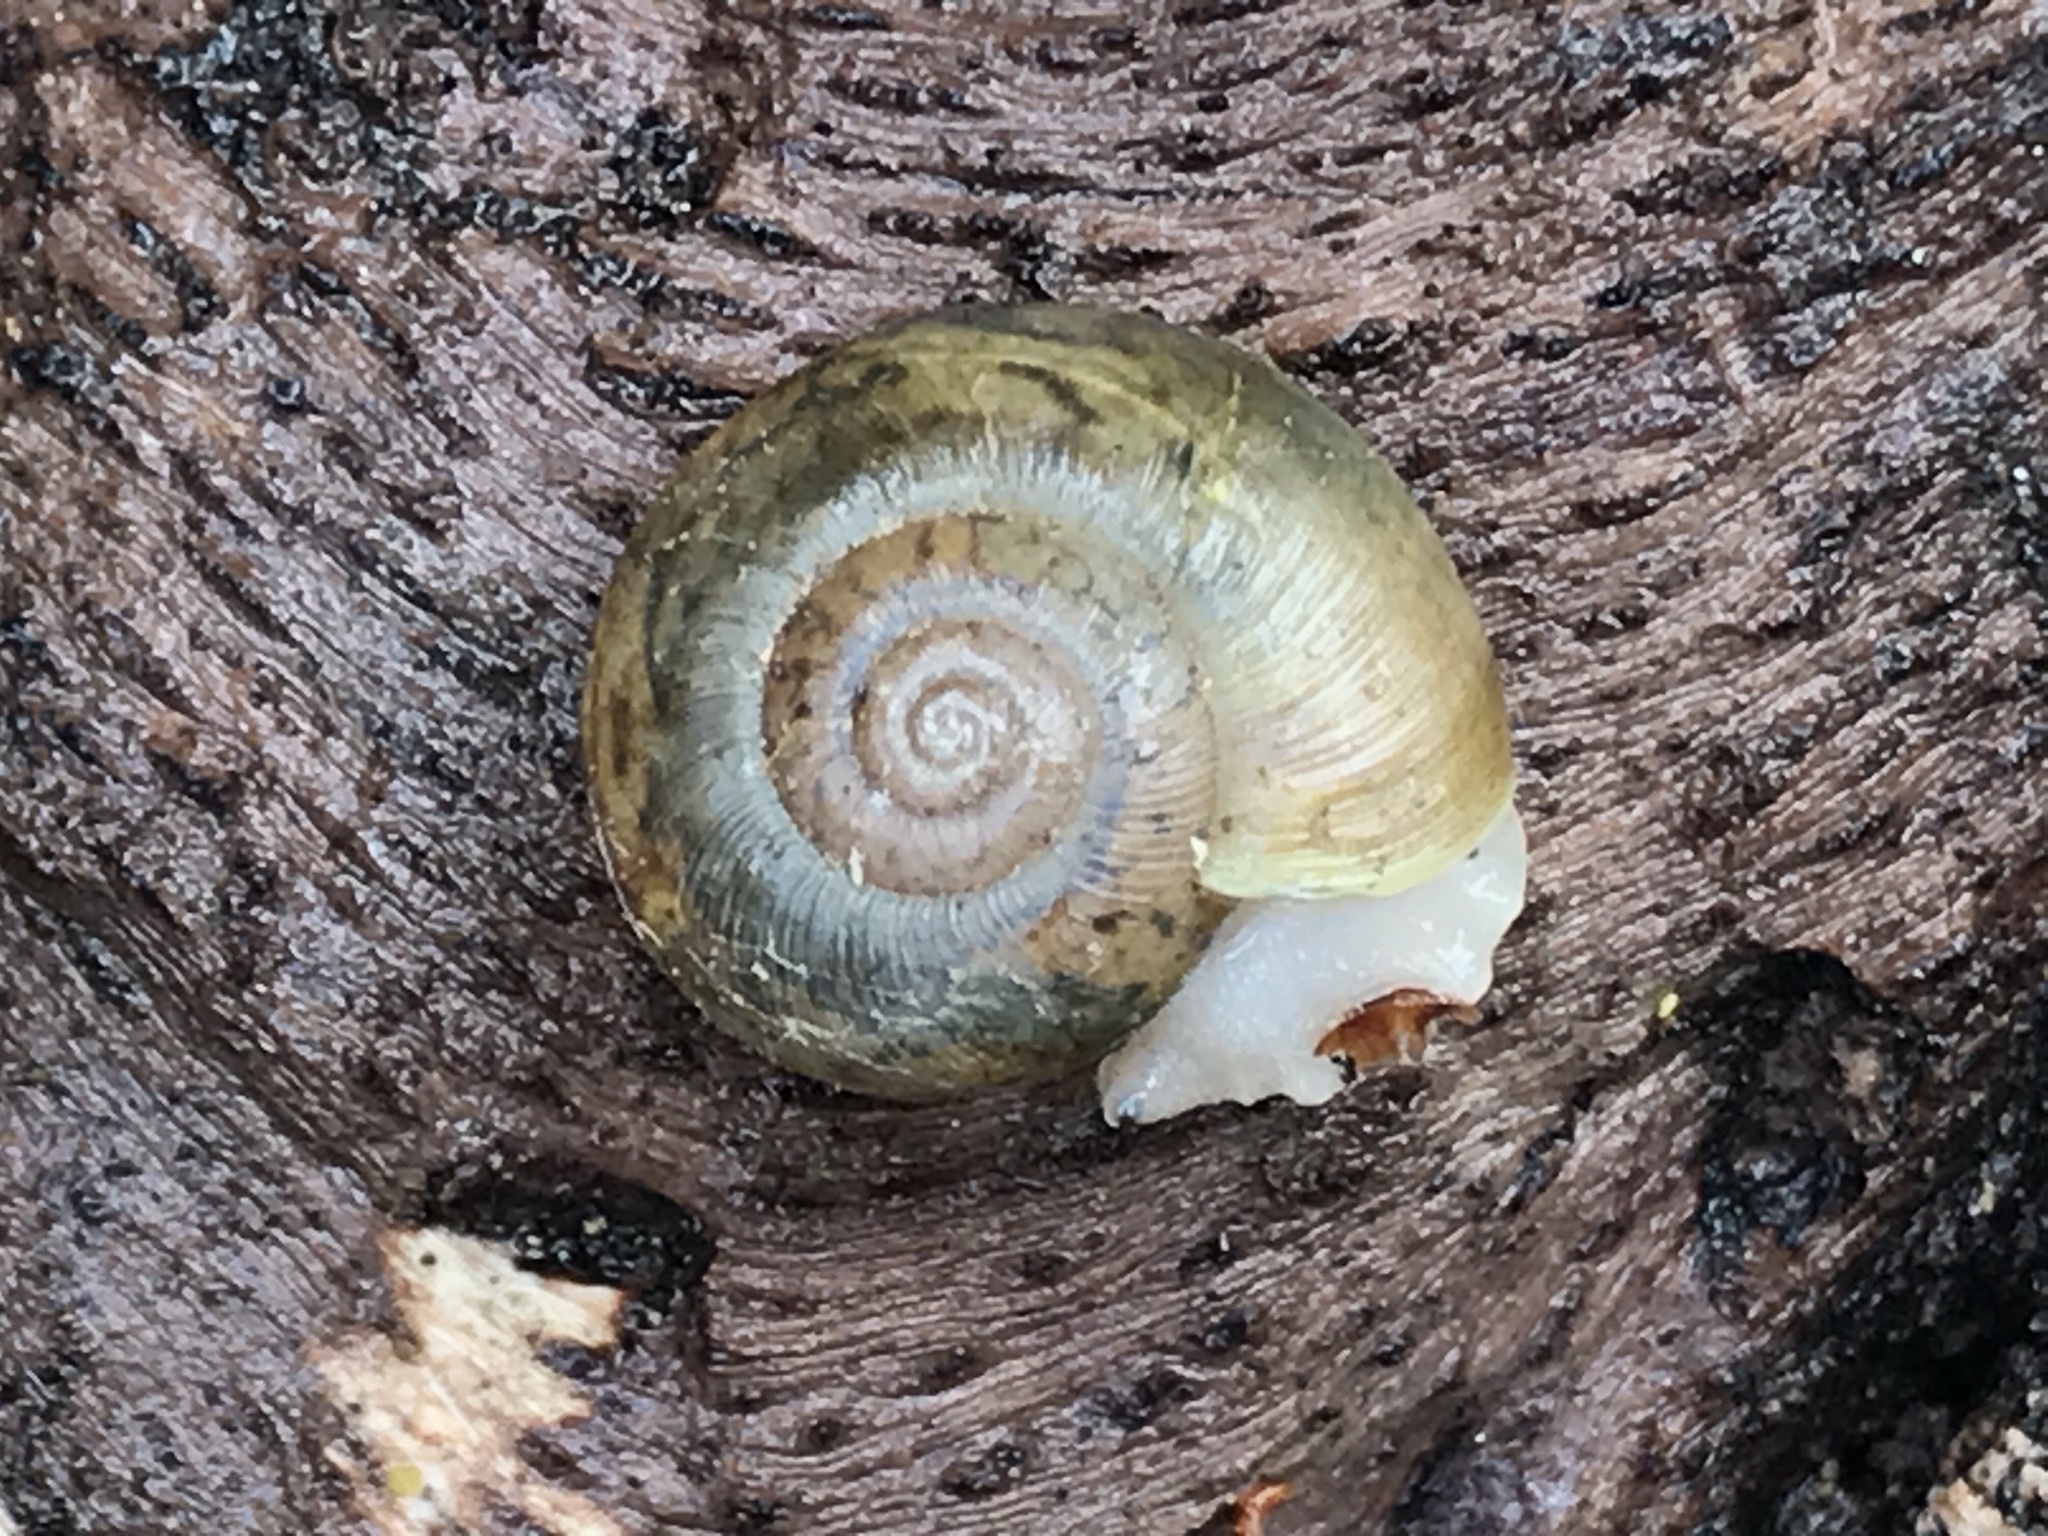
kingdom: Animalia
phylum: Mollusca
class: Gastropoda
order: Stylommatophora
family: Haplotrematidae
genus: Haplotrema
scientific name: Haplotrema minimum
